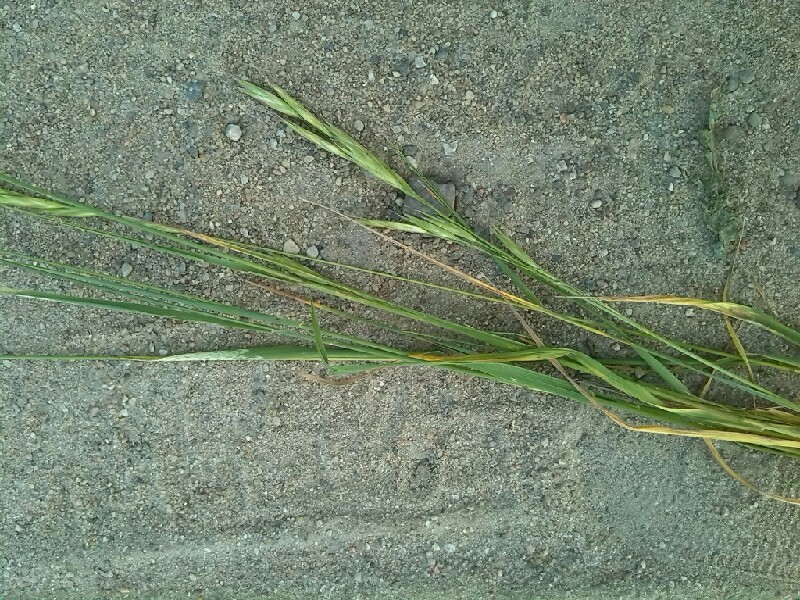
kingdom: Plantae
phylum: Tracheophyta
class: Liliopsida
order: Poales
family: Poaceae
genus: Bromus
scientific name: Bromus carinatus
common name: Mountain brome
